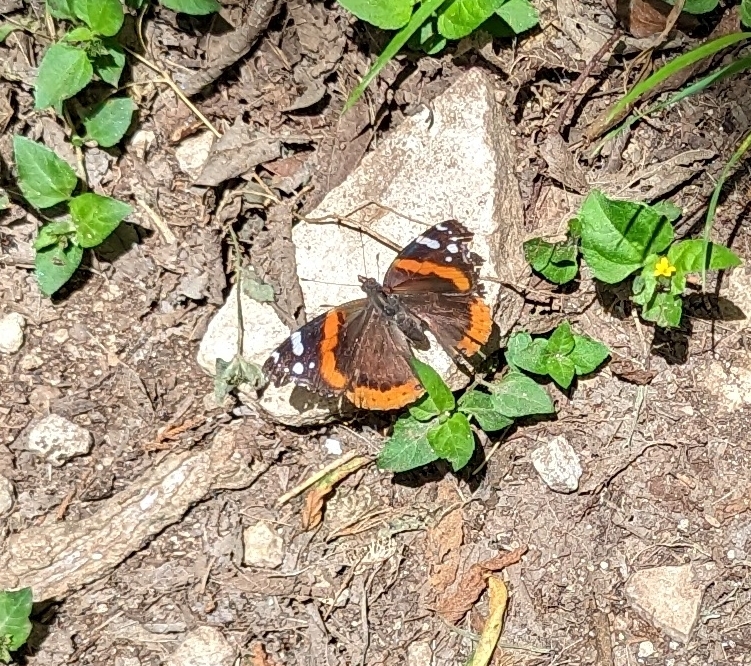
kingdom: Animalia
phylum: Arthropoda
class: Insecta
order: Lepidoptera
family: Nymphalidae
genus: Vanessa
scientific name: Vanessa atalanta
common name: Red admiral
